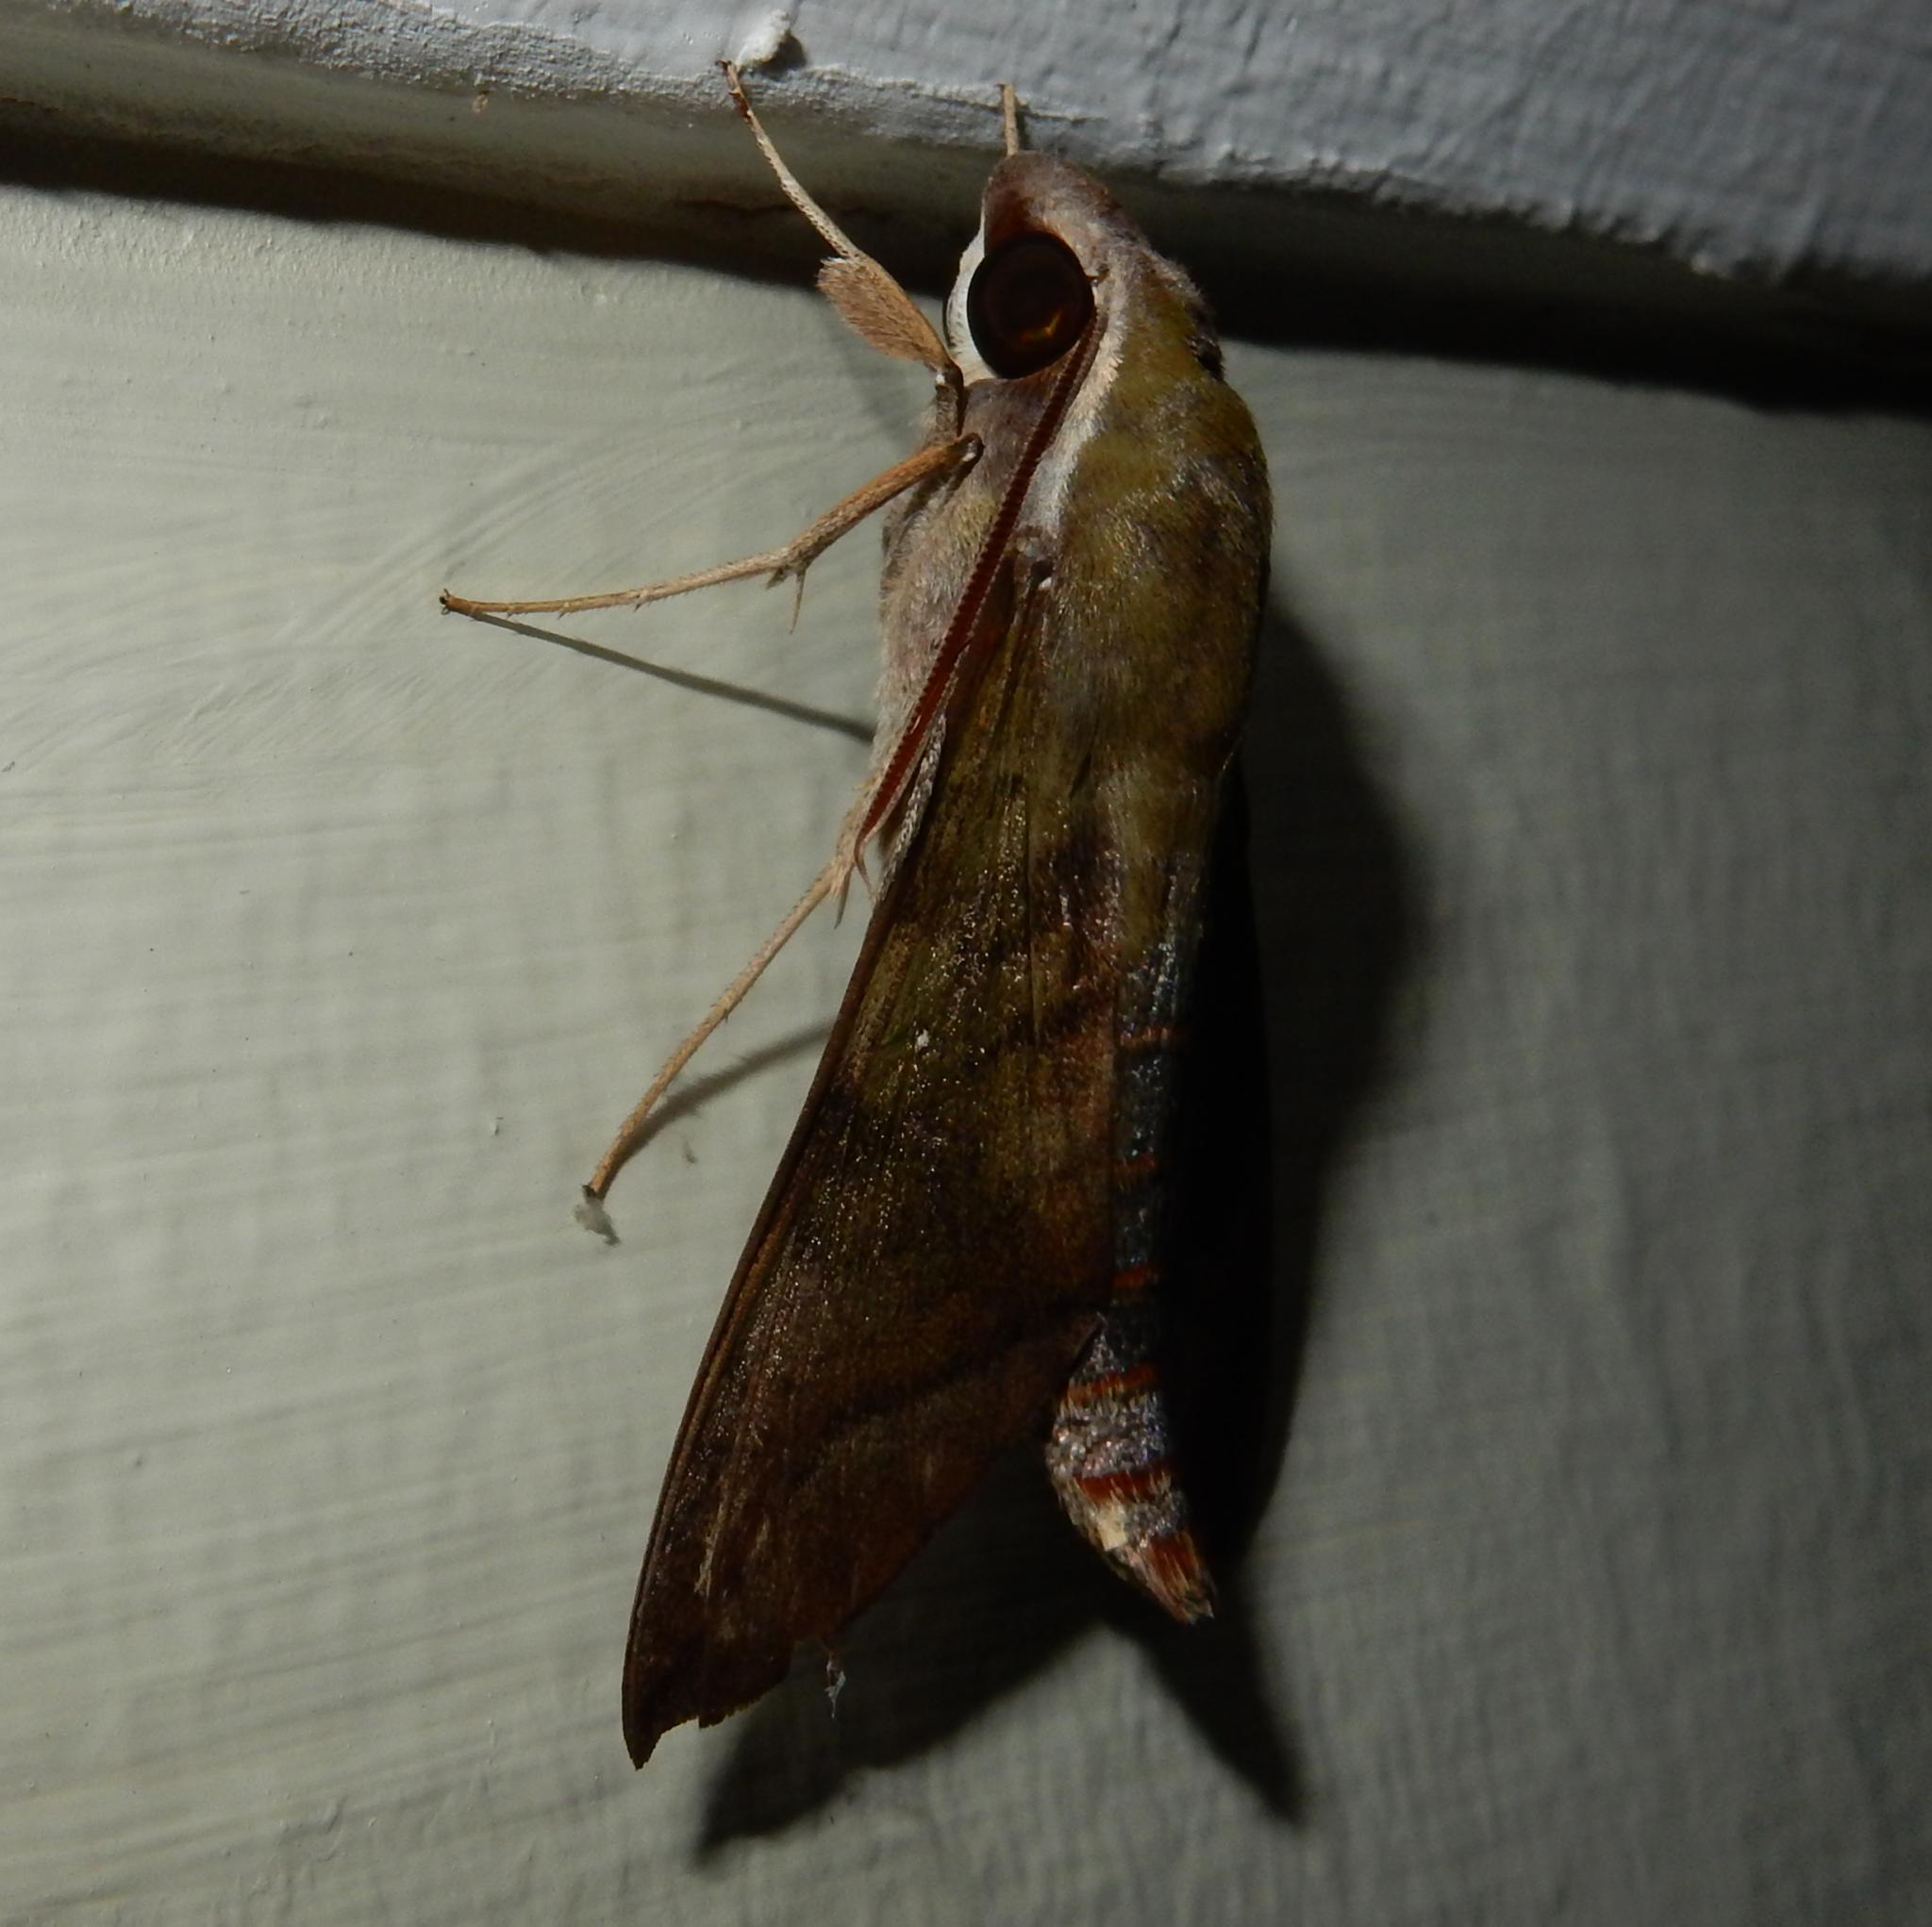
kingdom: Animalia
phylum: Arthropoda
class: Insecta
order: Lepidoptera
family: Sphingidae
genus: Nephele
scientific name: Nephele comma
